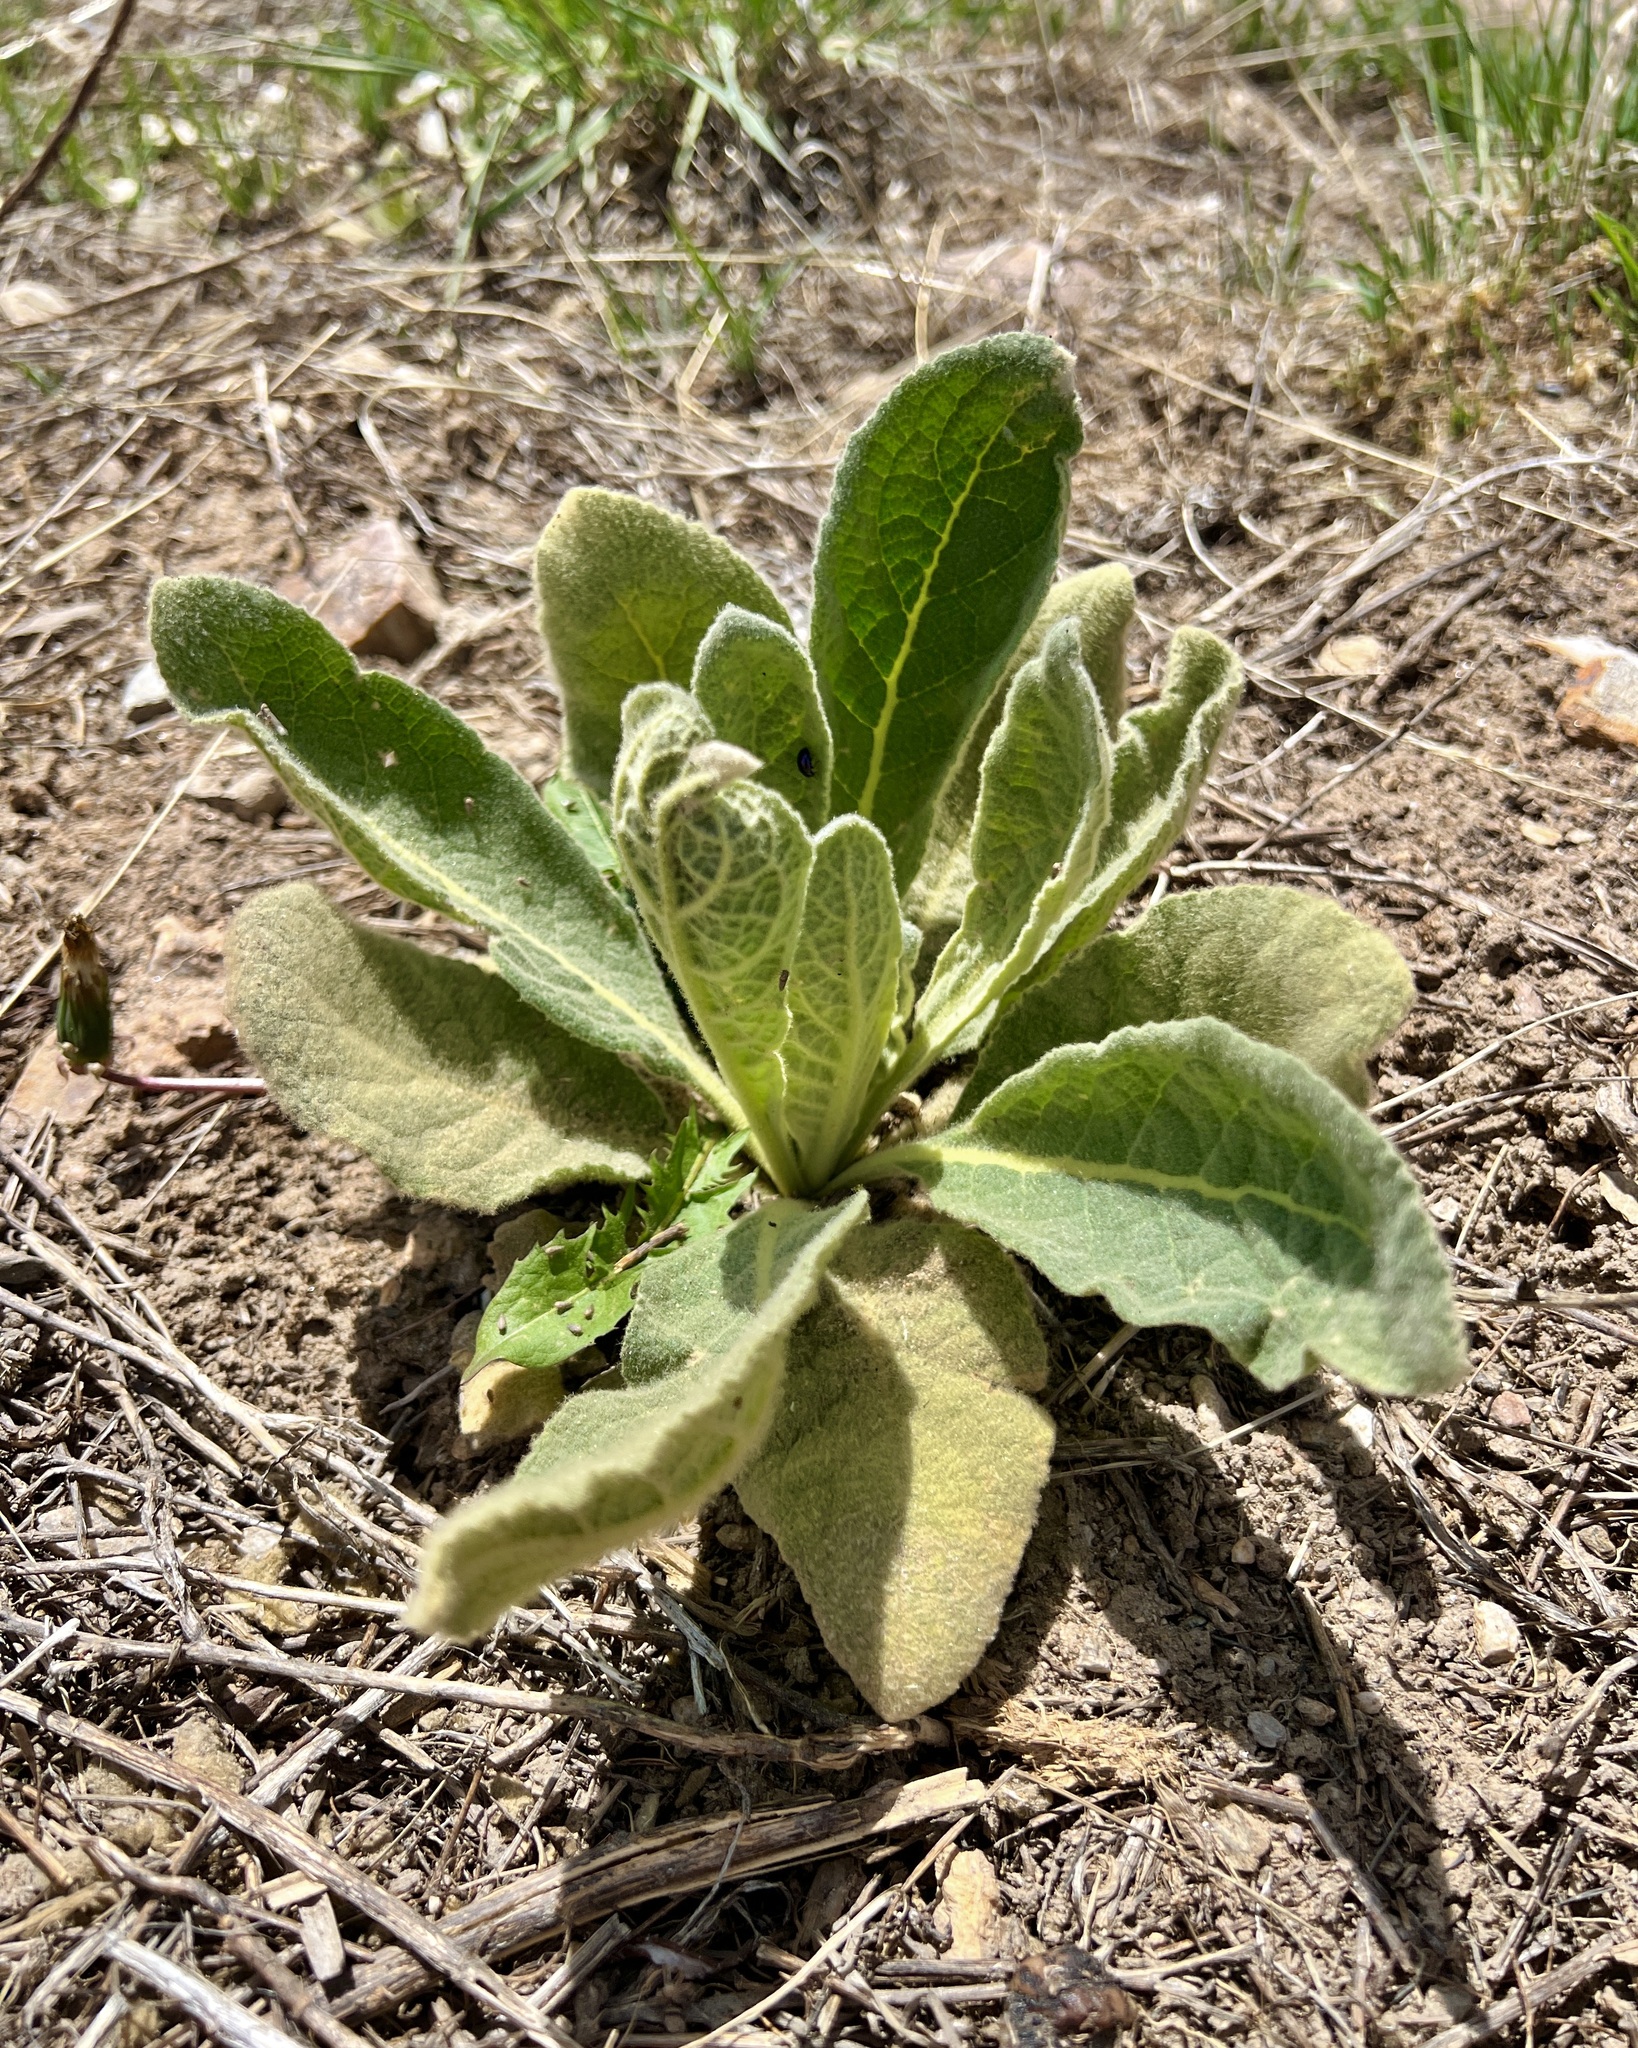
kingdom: Plantae
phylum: Tracheophyta
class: Magnoliopsida
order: Lamiales
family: Scrophulariaceae
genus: Verbascum
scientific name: Verbascum thapsus
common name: Common mullein
